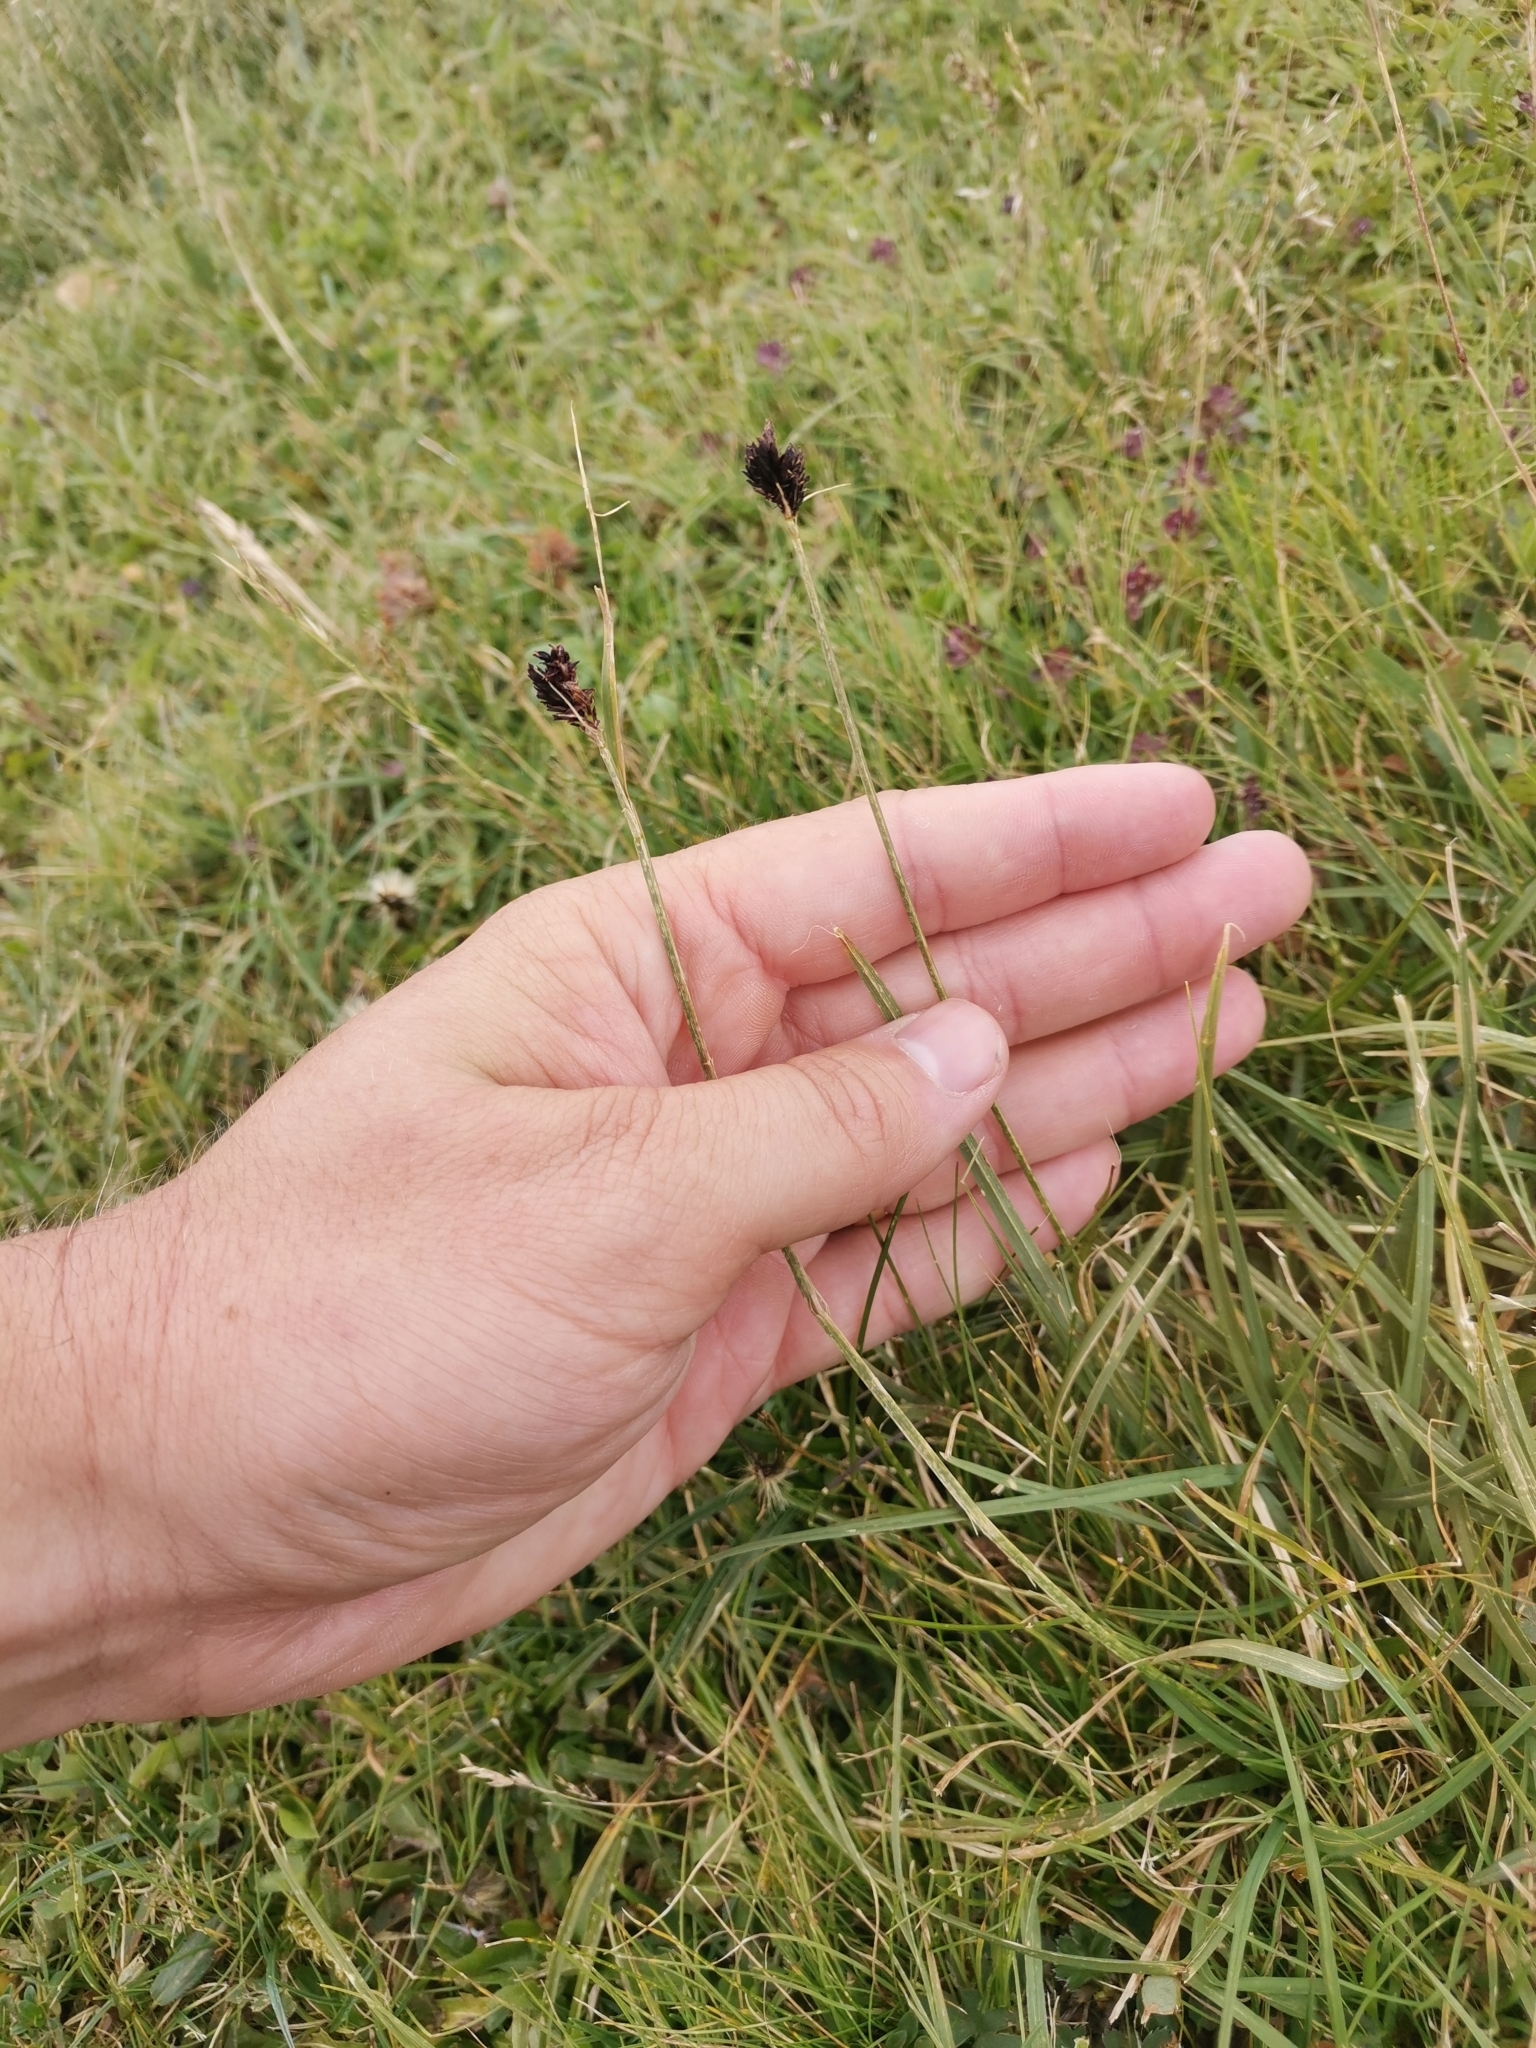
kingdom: Plantae
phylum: Tracheophyta
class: Liliopsida
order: Poales
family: Cyperaceae
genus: Carex
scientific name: Carex parviflora
